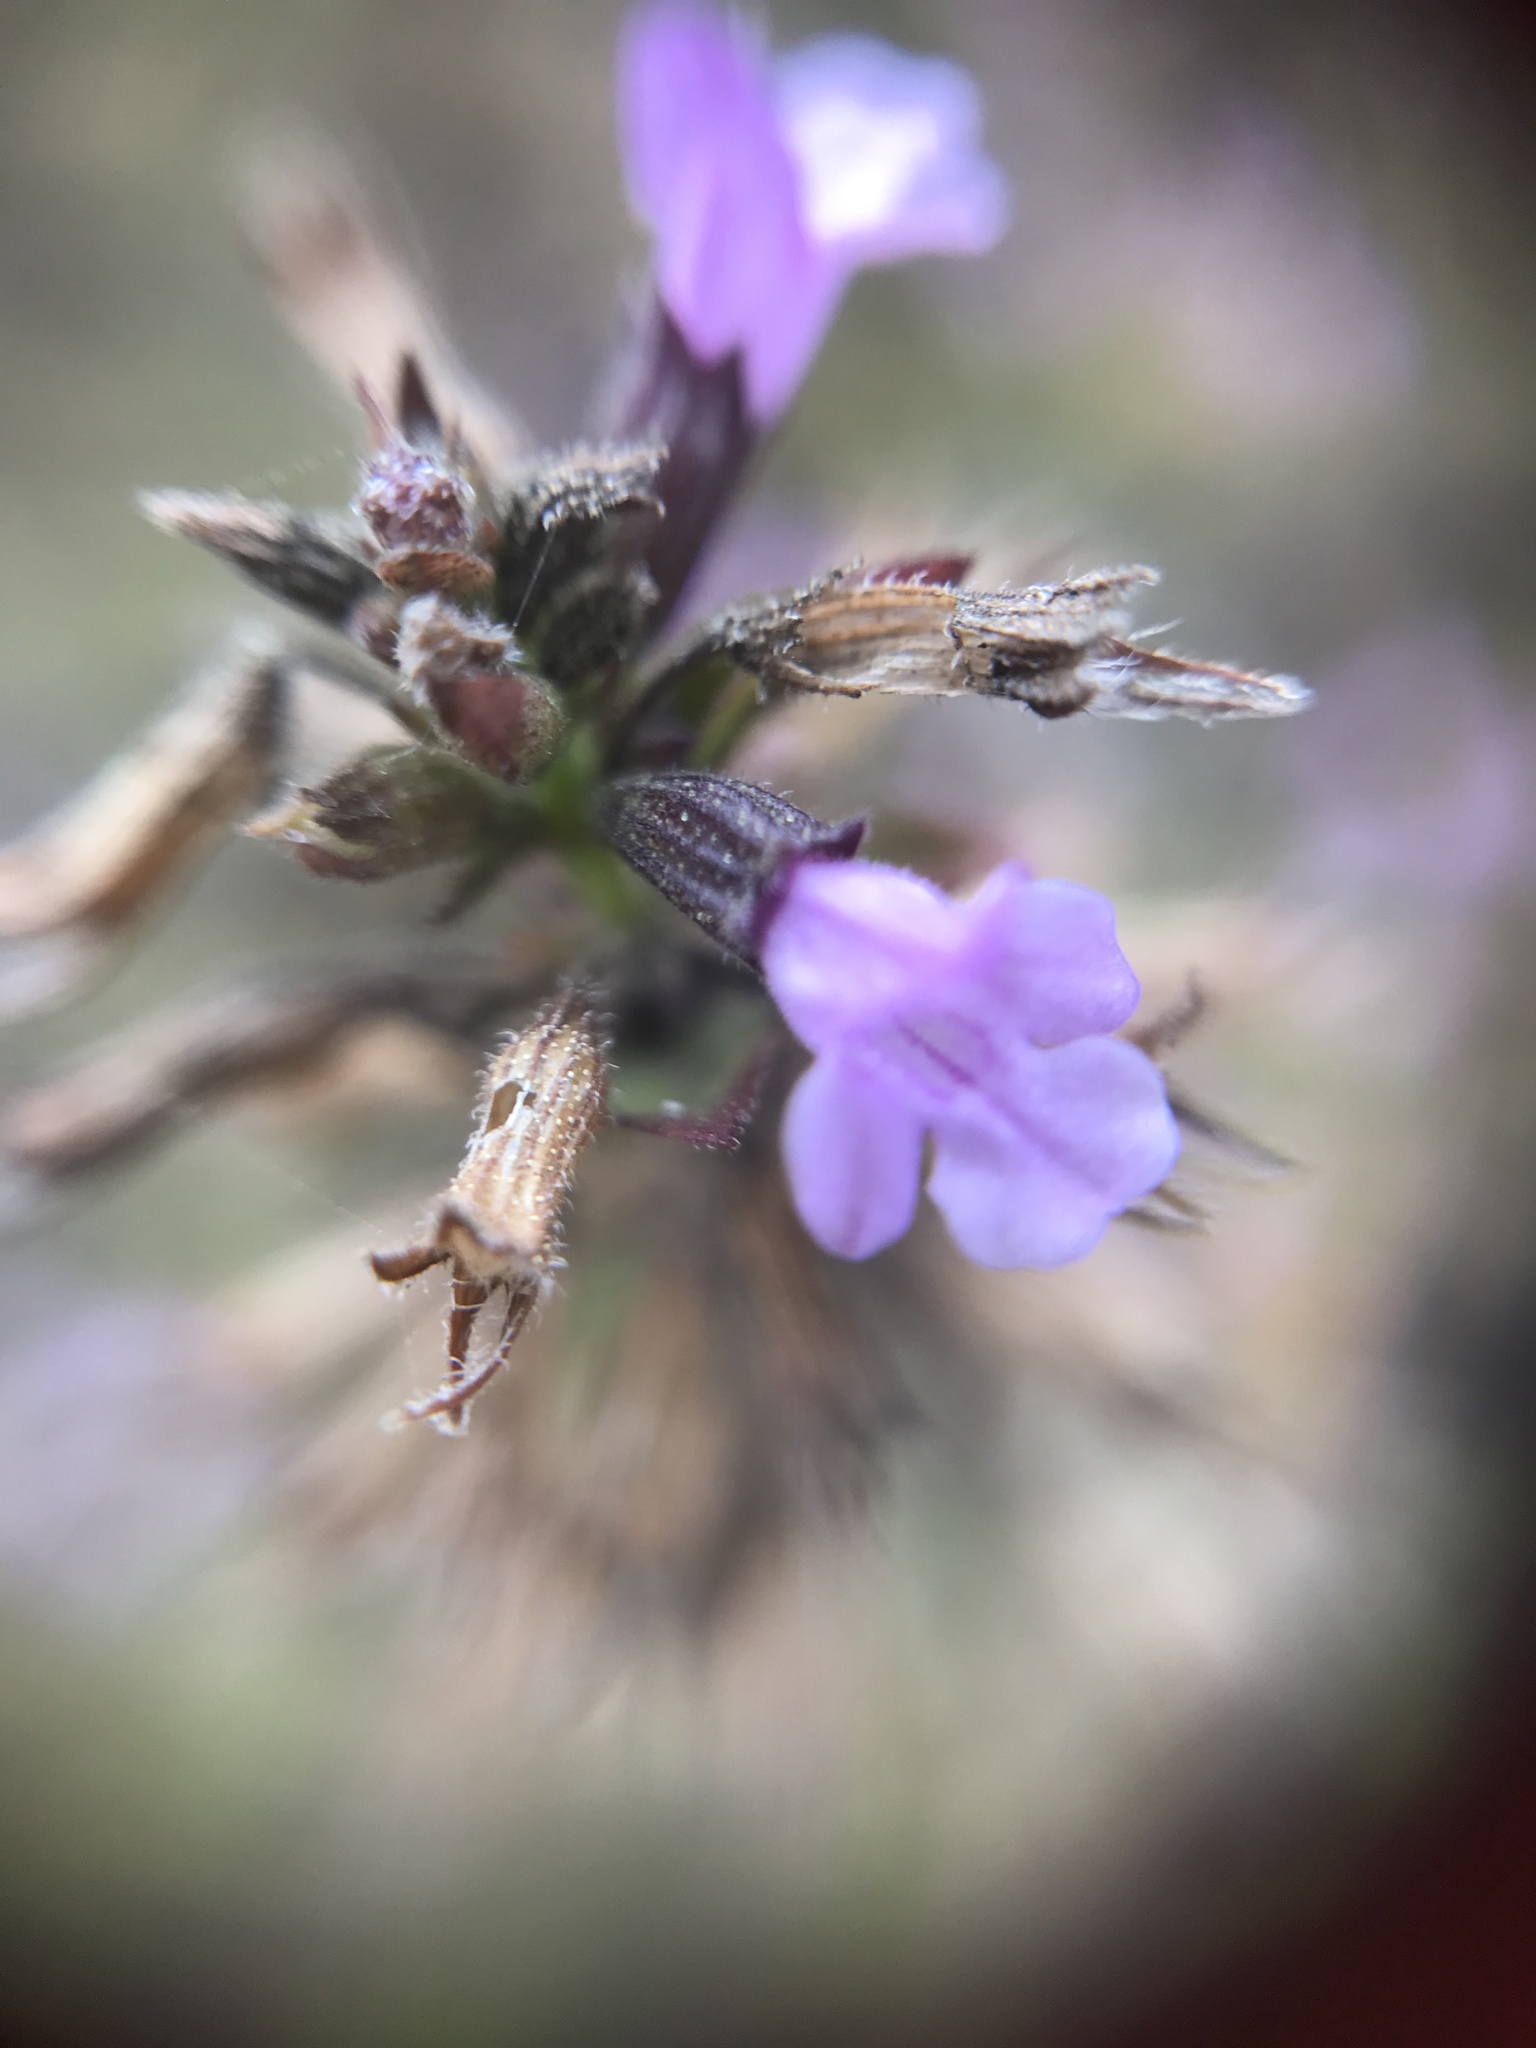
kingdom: Plantae
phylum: Tracheophyta
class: Magnoliopsida
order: Lamiales
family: Lamiaceae
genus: Clinopodium
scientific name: Clinopodium menthifolium
